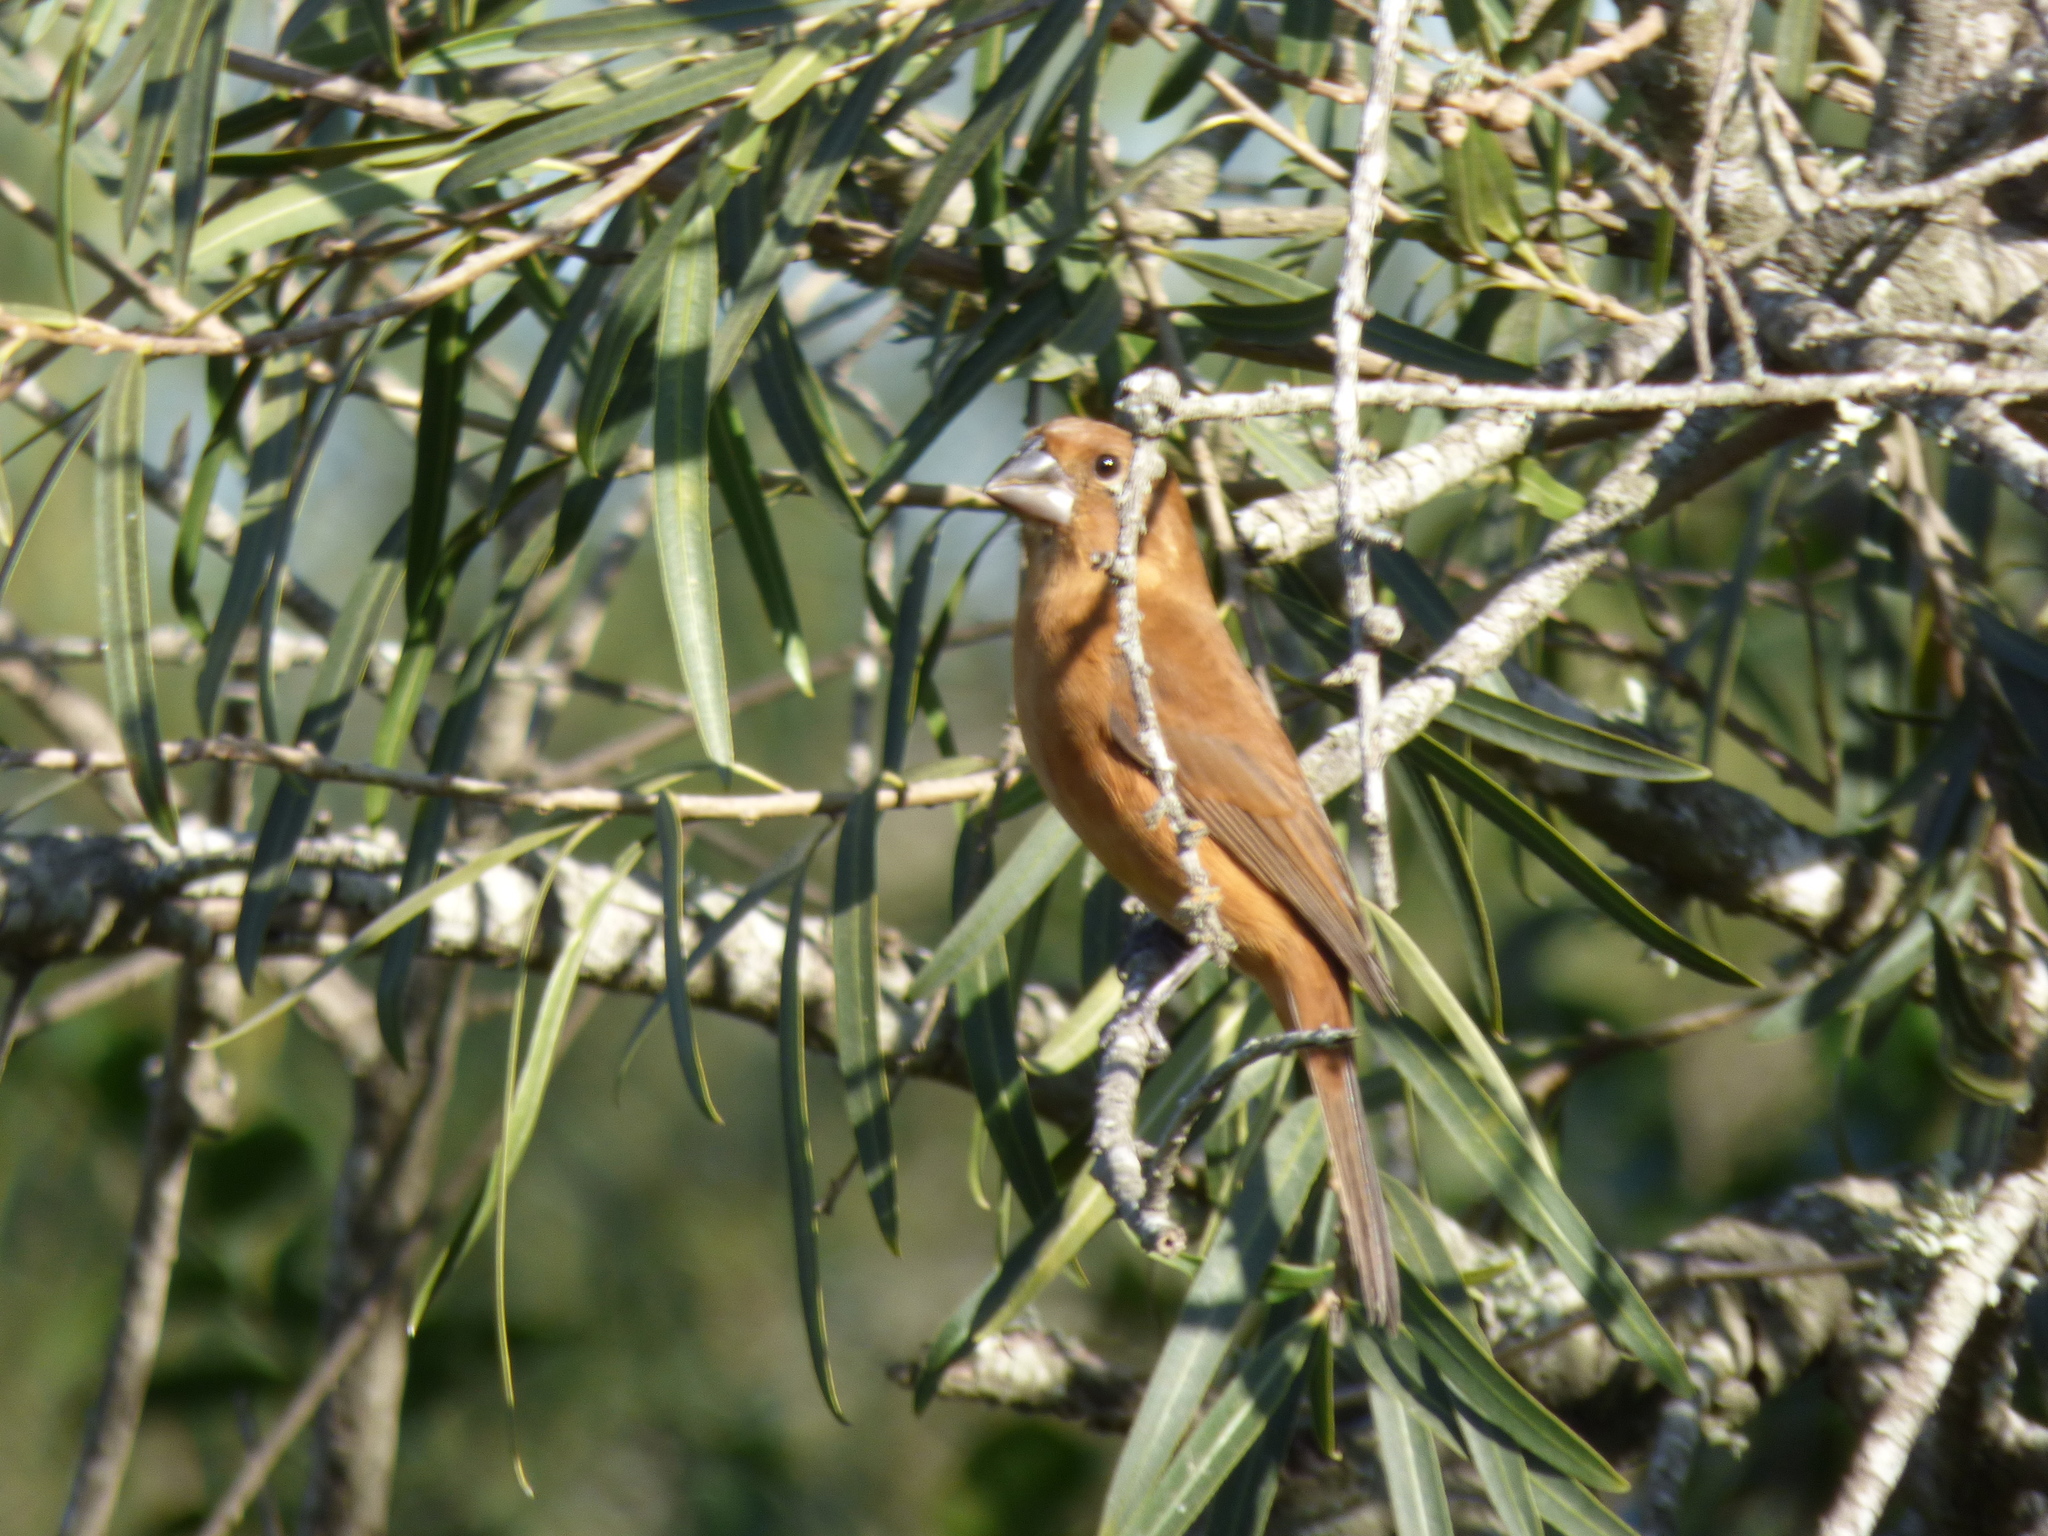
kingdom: Animalia
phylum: Chordata
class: Aves
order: Passeriformes
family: Cardinalidae
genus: Cyanoloxia
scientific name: Cyanoloxia brissonii
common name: Ultramarine grosbeak
